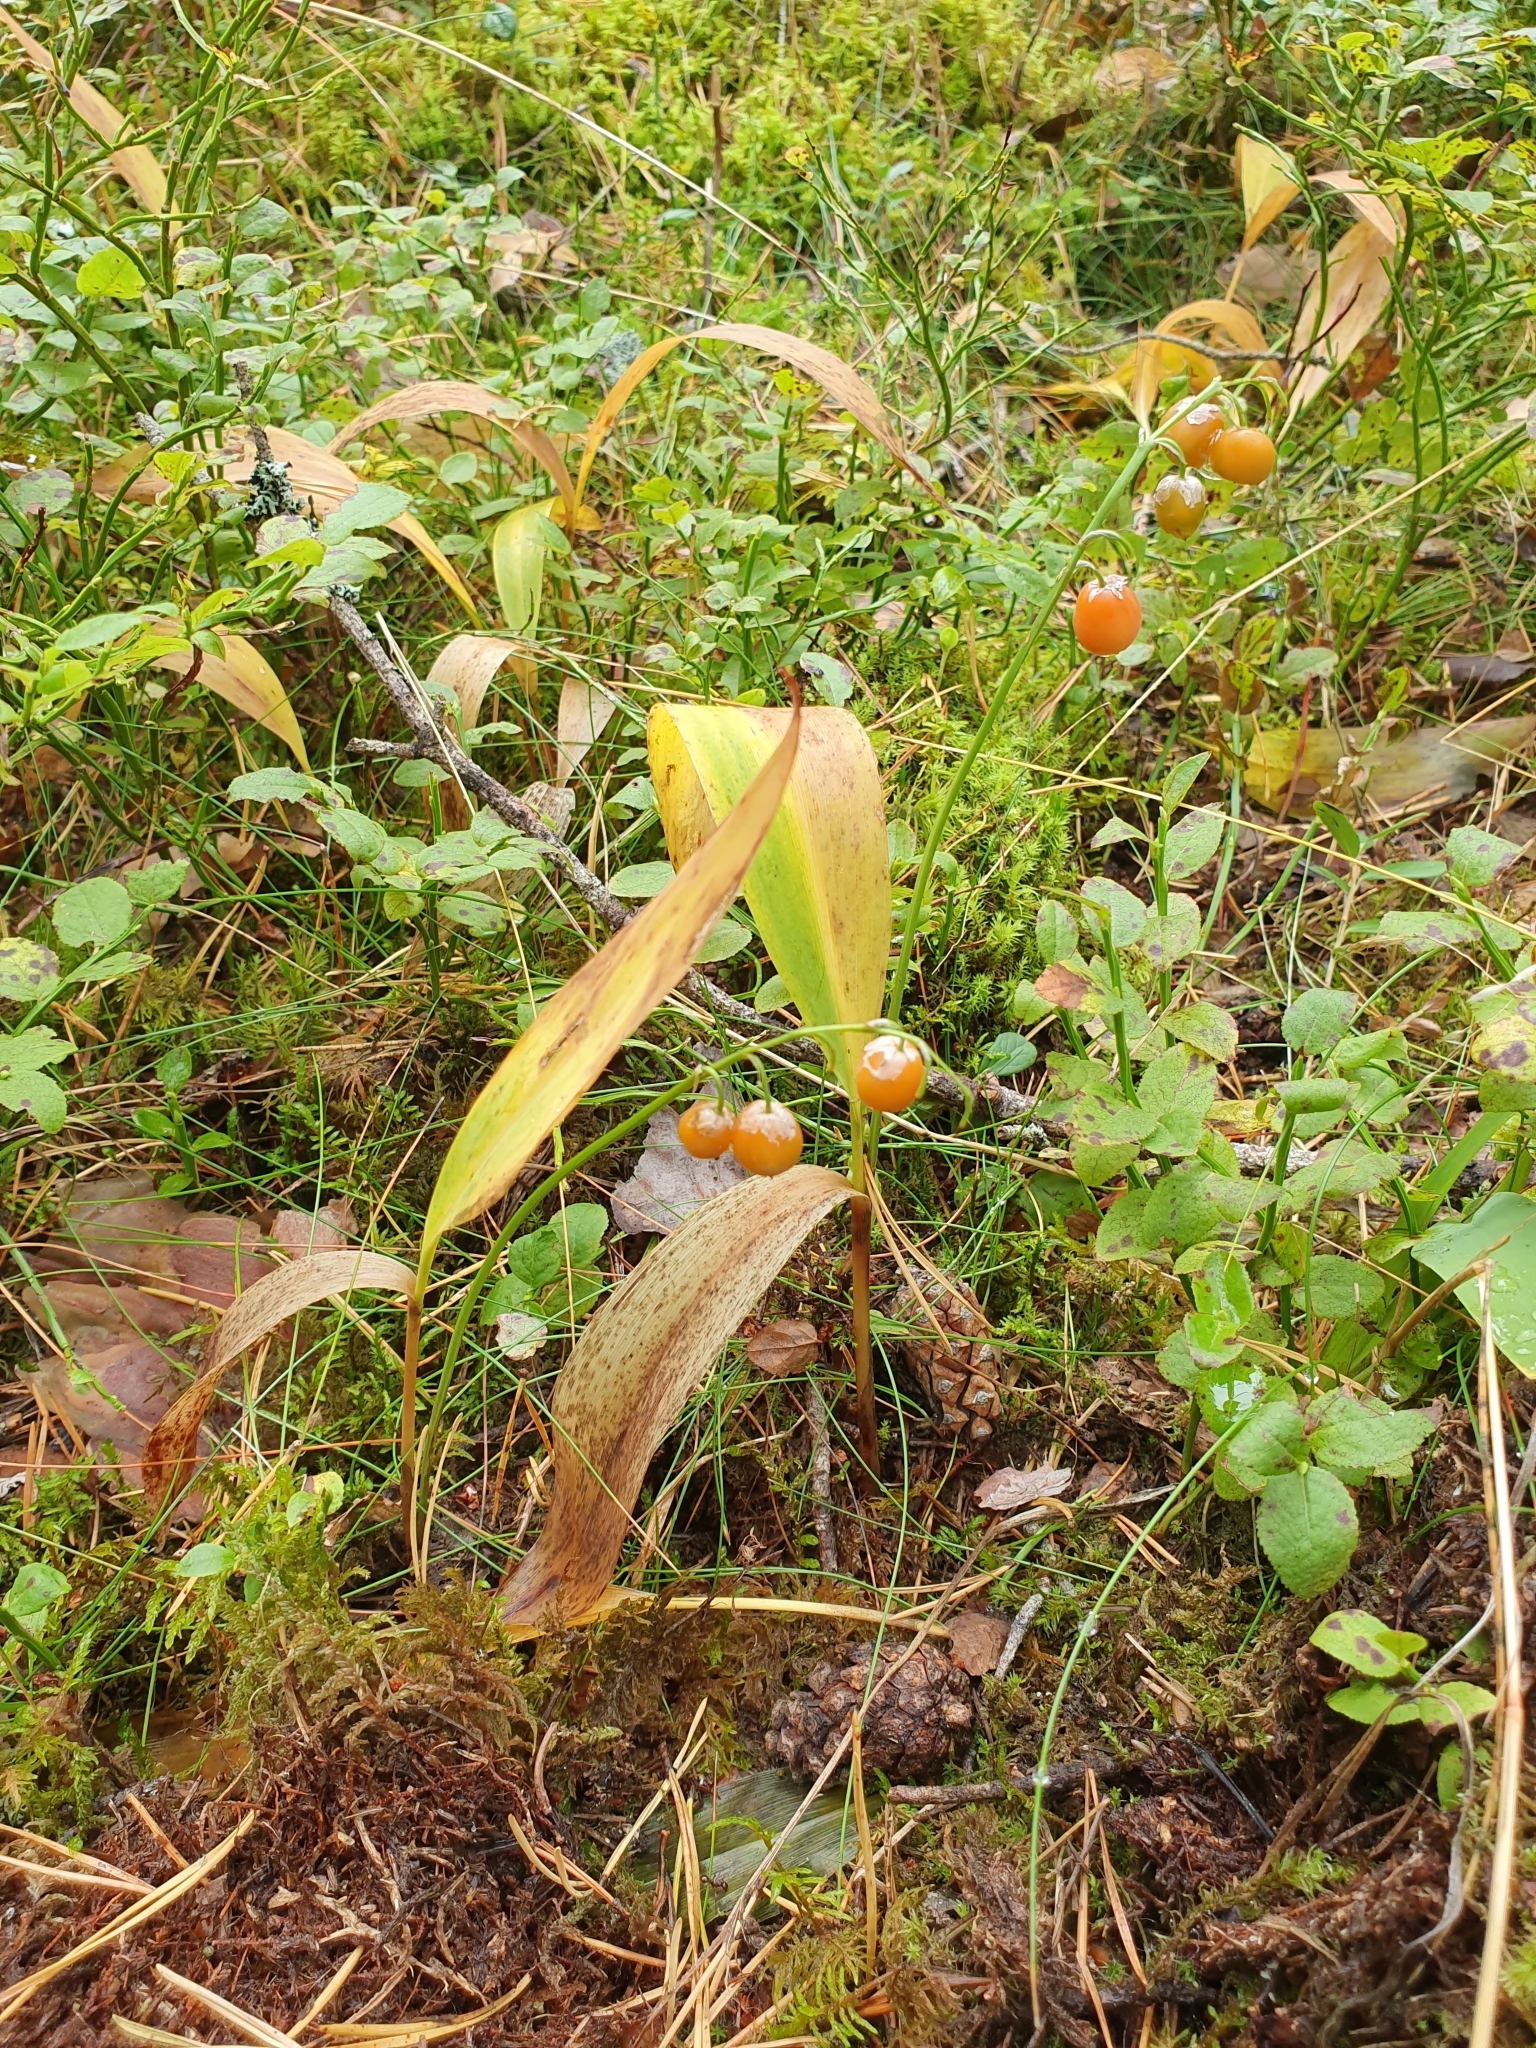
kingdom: Plantae
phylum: Tracheophyta
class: Liliopsida
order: Asparagales
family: Asparagaceae
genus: Convallaria
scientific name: Convallaria majalis
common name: Lily-of-the-valley
